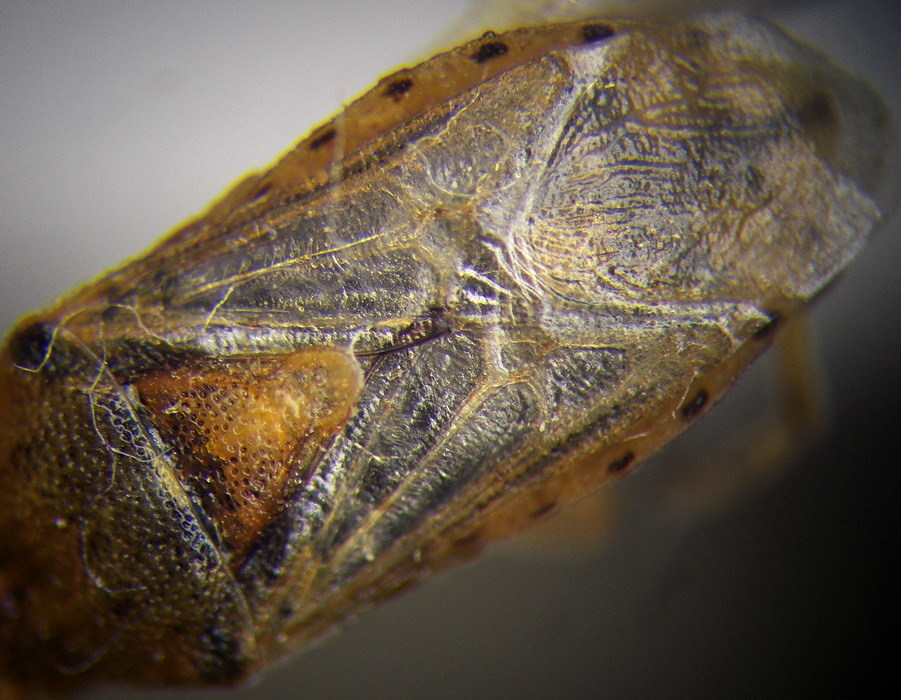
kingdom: Animalia
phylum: Arthropoda
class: Insecta
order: Hemiptera
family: Rhopalidae
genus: Stictopleurus
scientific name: Stictopleurus abutilon
